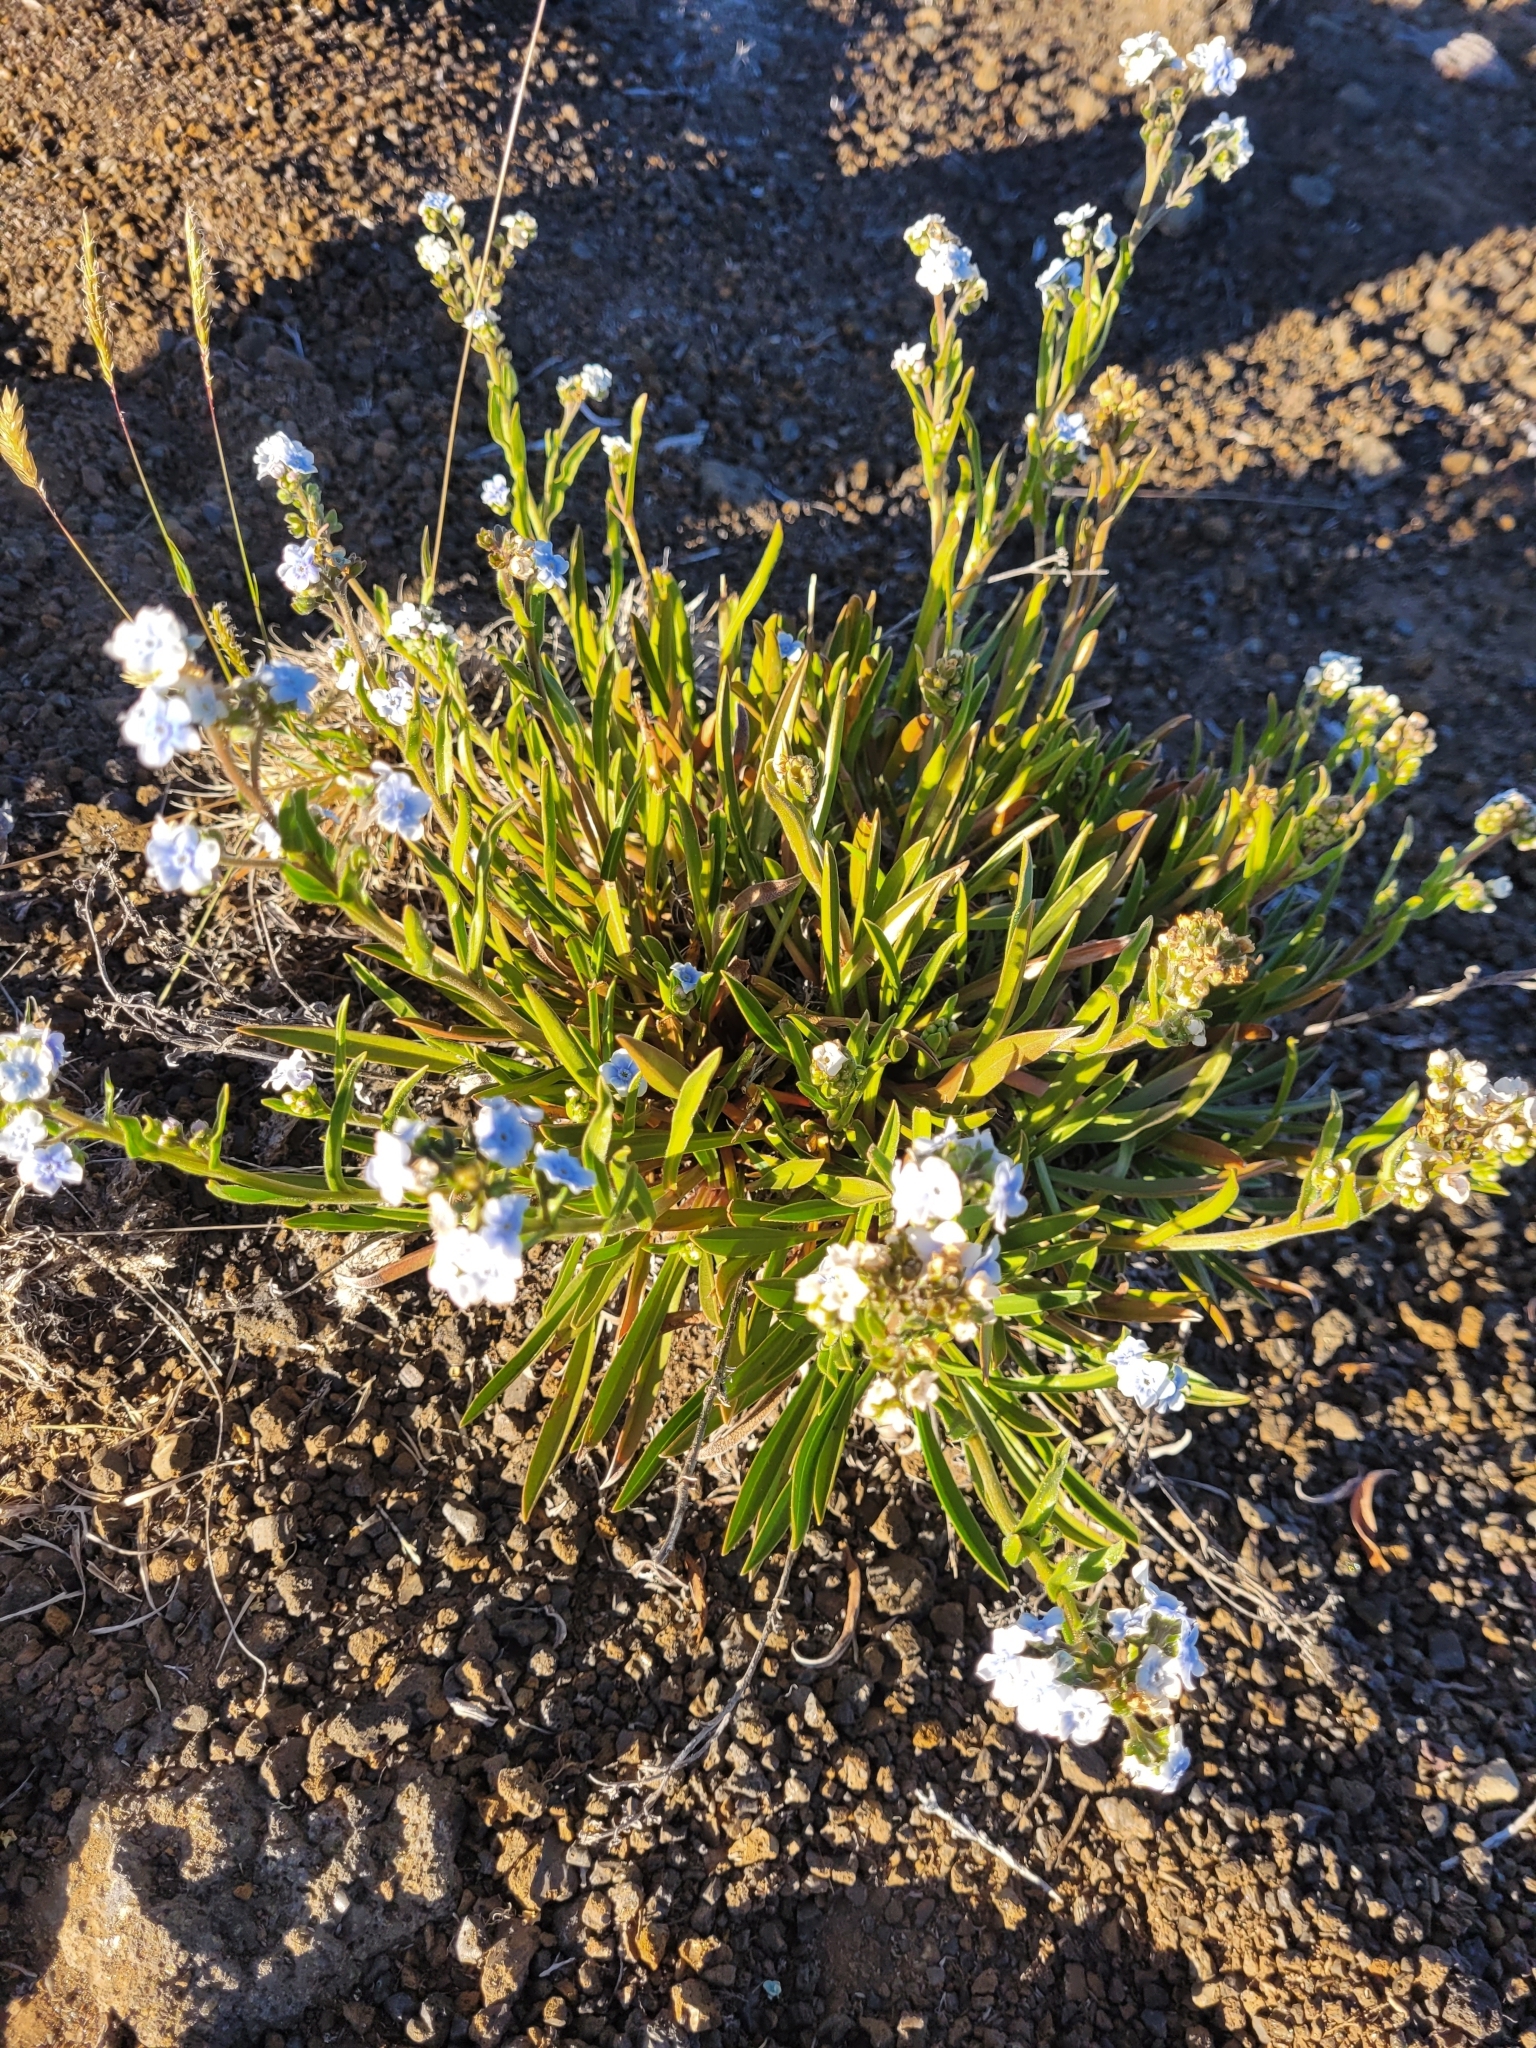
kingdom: Plantae
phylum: Tracheophyta
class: Magnoliopsida
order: Boraginales
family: Boraginaceae
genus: Cynoglossum
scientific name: Cynoglossum borbonicum
